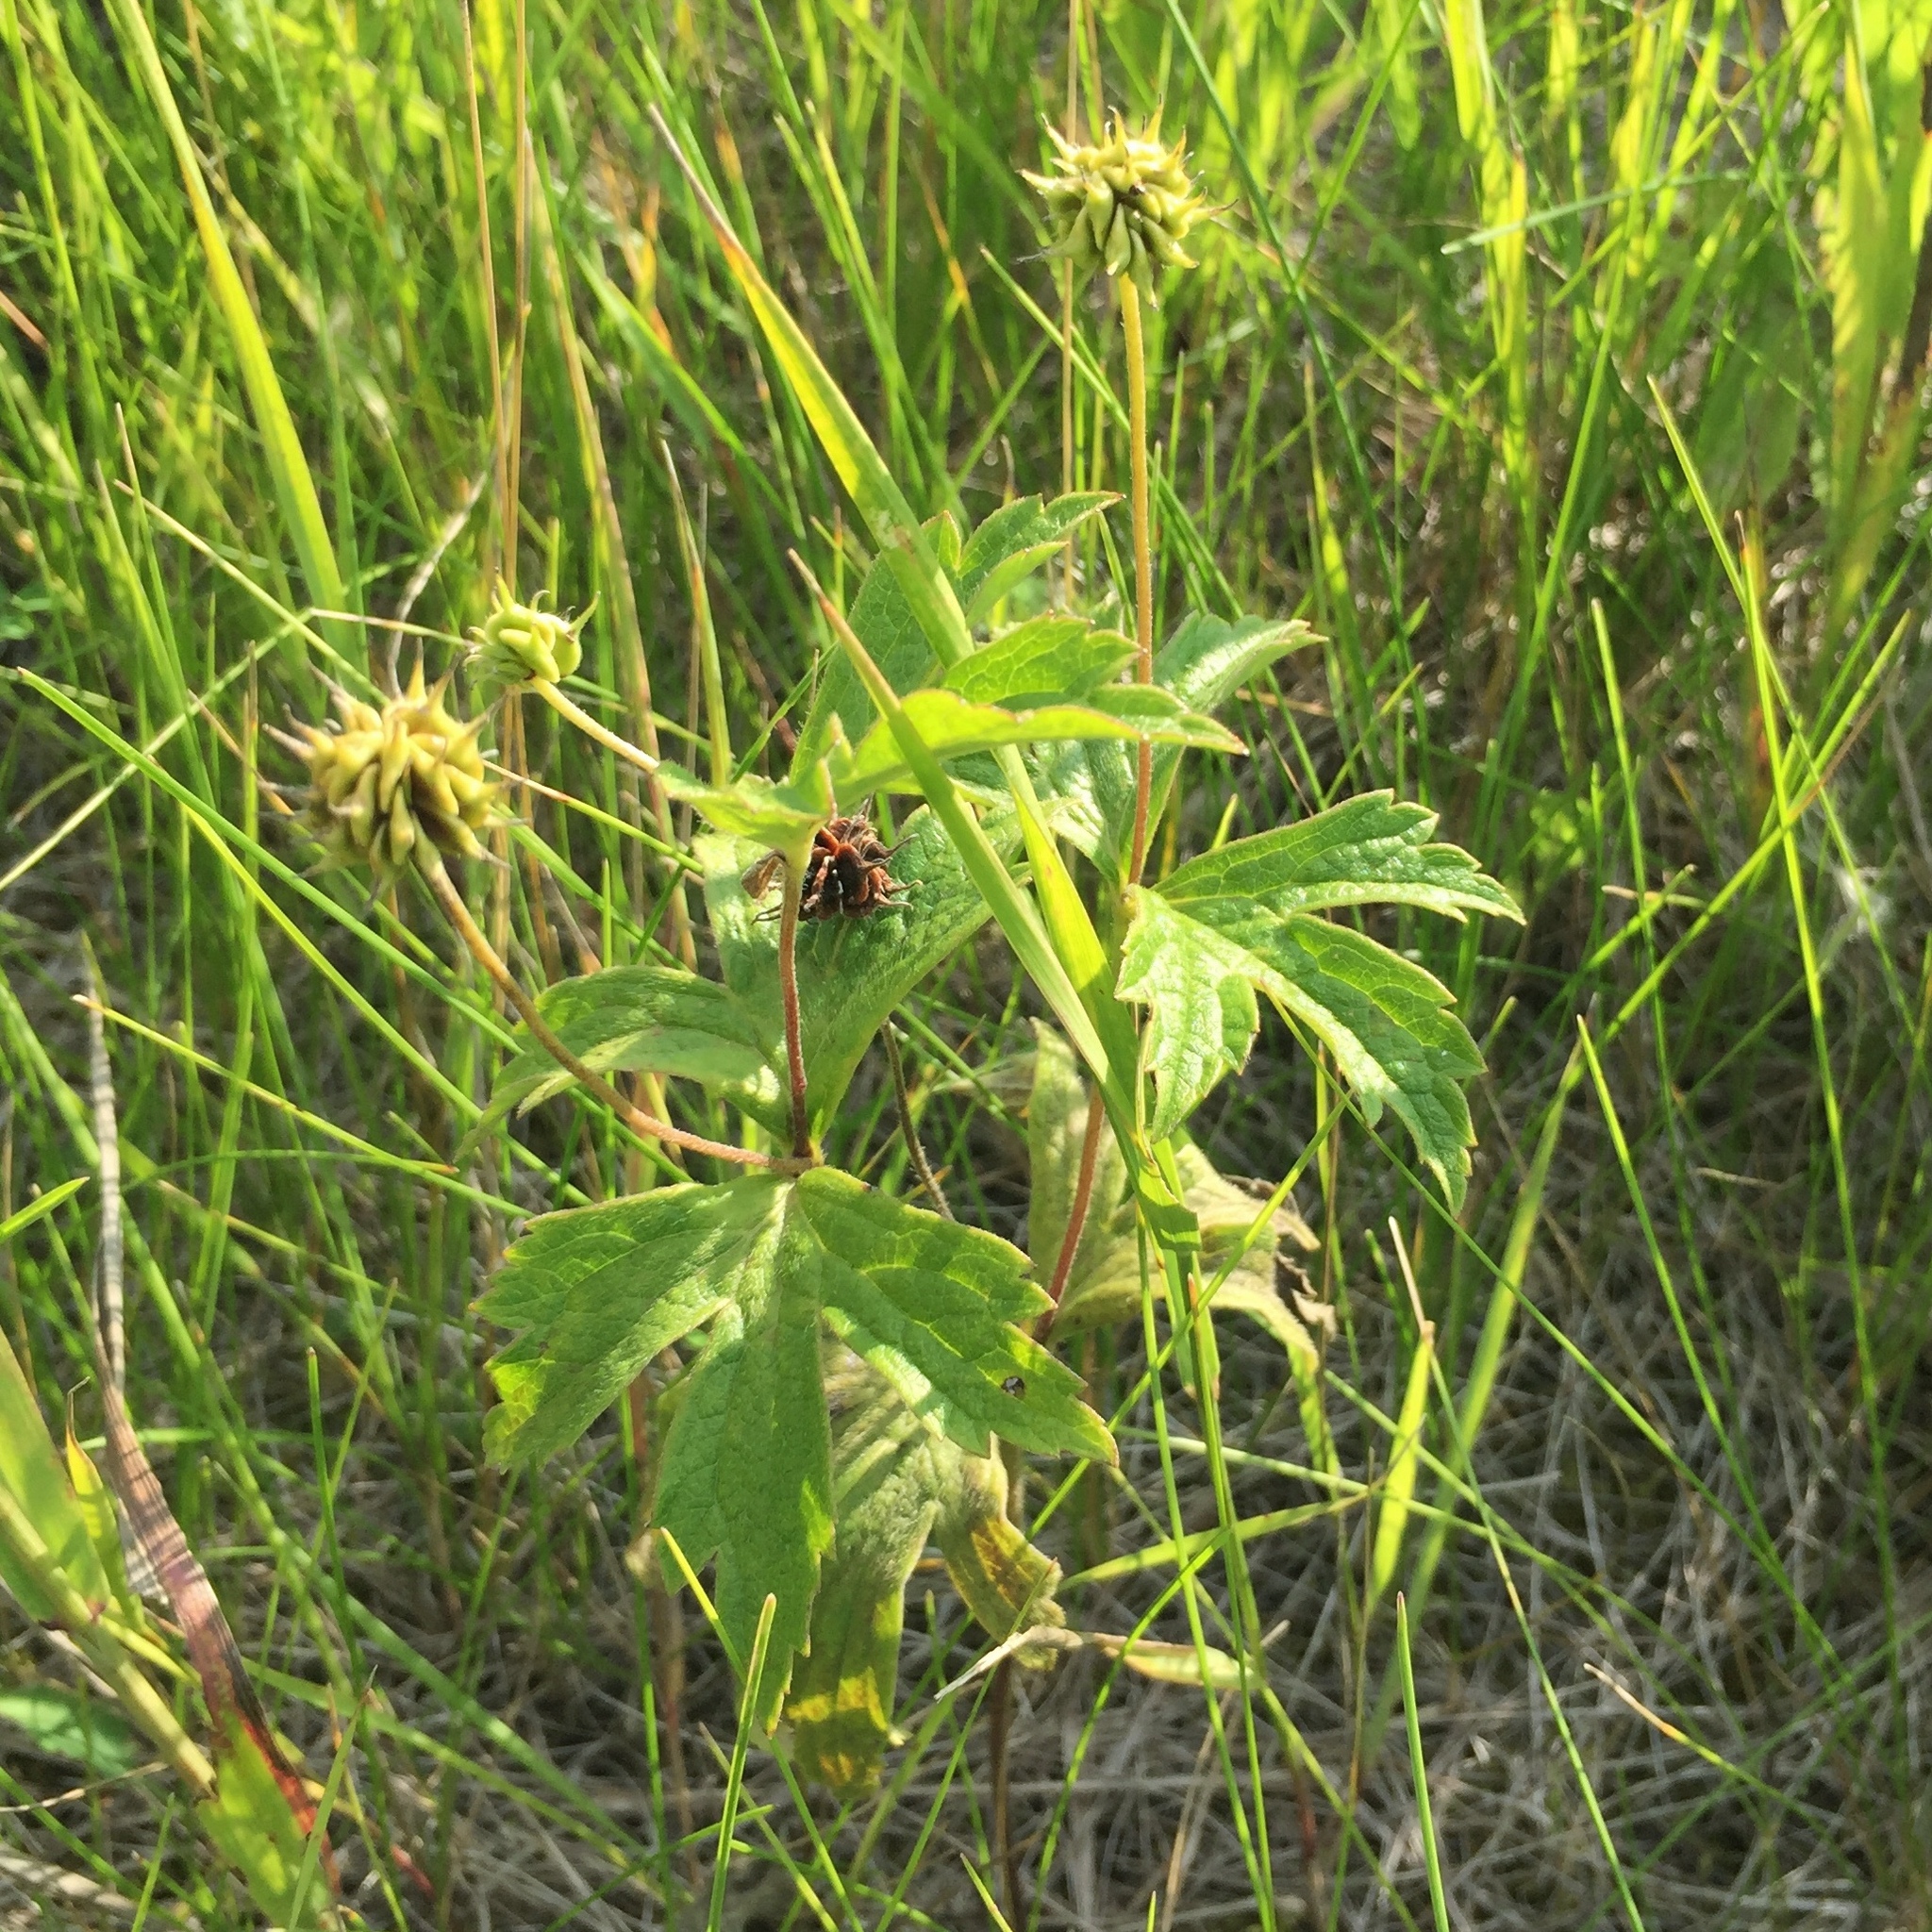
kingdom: Plantae
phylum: Tracheophyta
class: Magnoliopsida
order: Ranunculales
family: Ranunculaceae
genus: Anemonastrum
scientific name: Anemonastrum canadense
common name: Canada anemone
